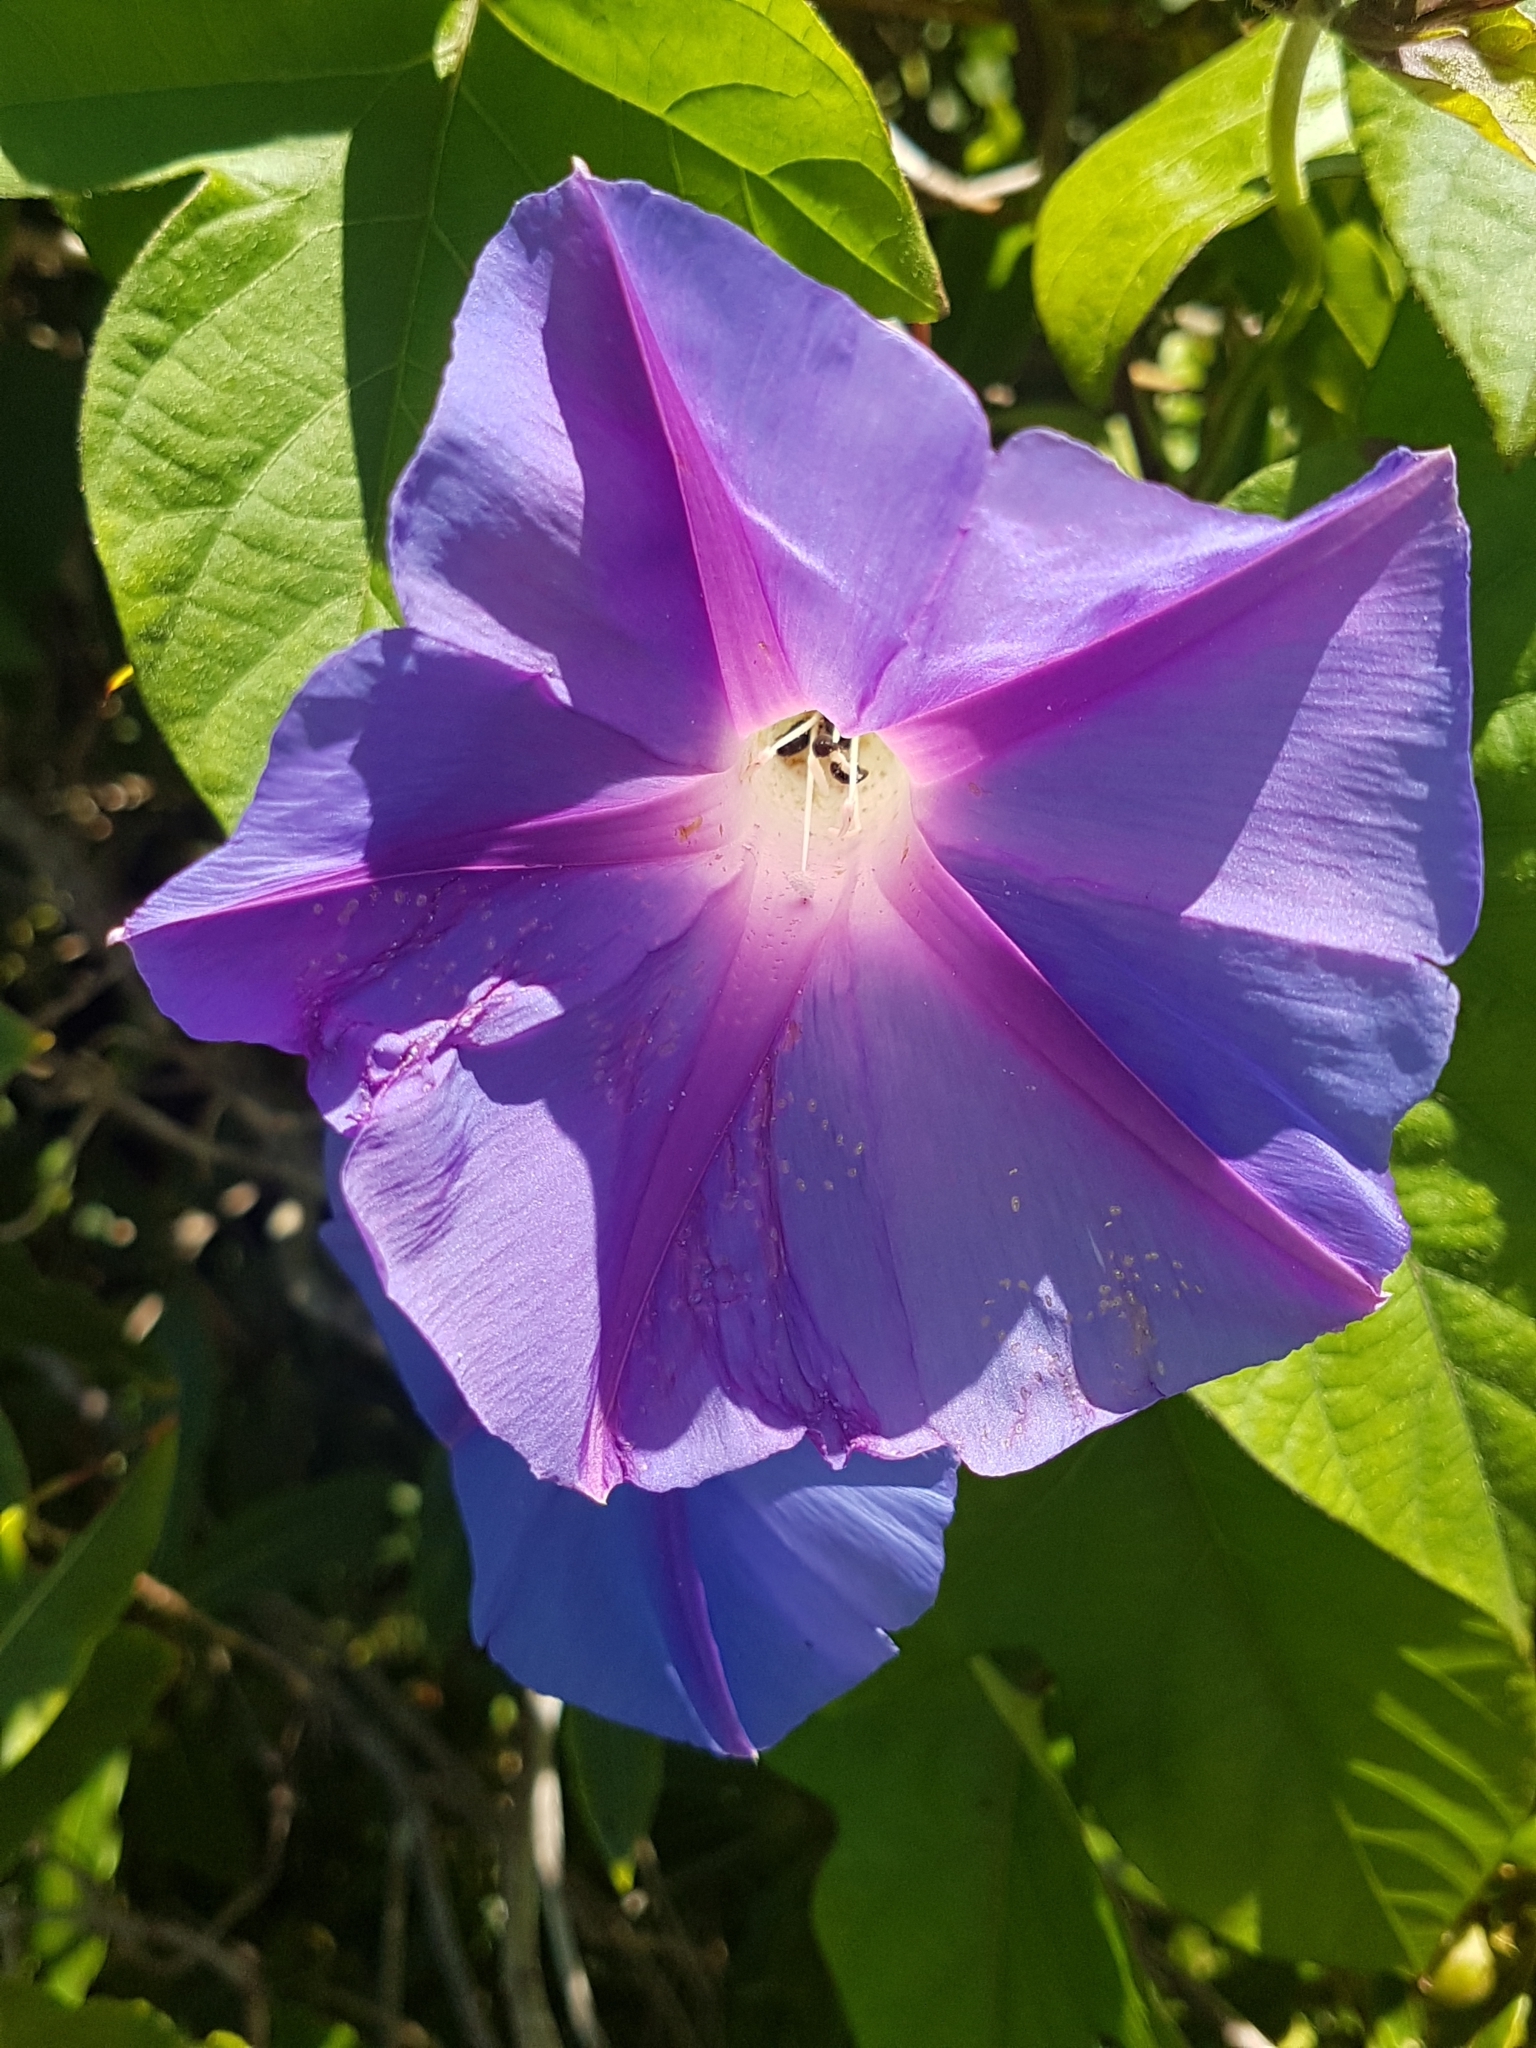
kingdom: Plantae
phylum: Tracheophyta
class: Magnoliopsida
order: Solanales
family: Convolvulaceae
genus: Ipomoea
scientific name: Ipomoea indica
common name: Blue dawnflower
